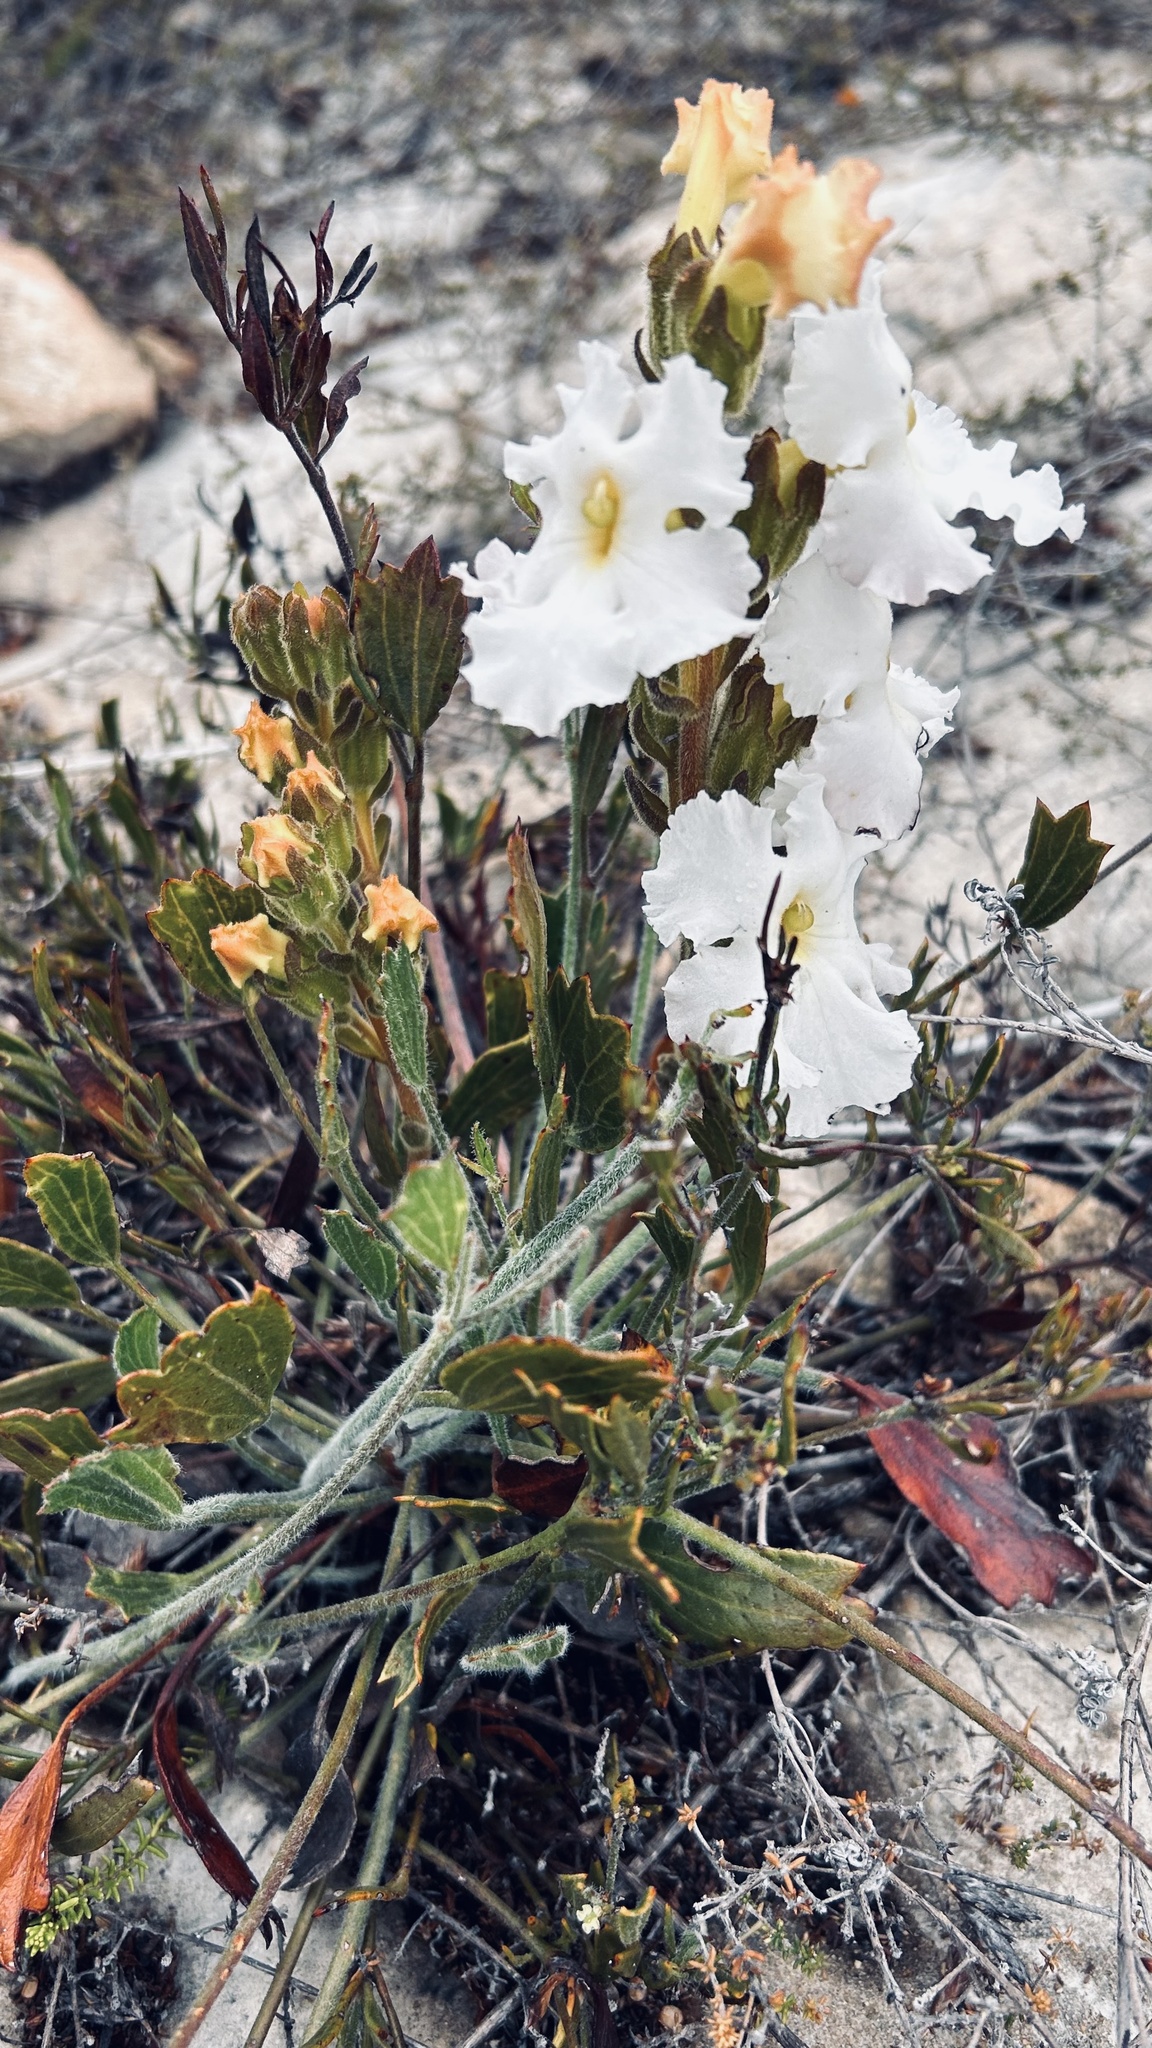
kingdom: Plantae
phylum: Tracheophyta
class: Magnoliopsida
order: Lamiales
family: Orobanchaceae
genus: Harveya
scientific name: Harveya capensis
